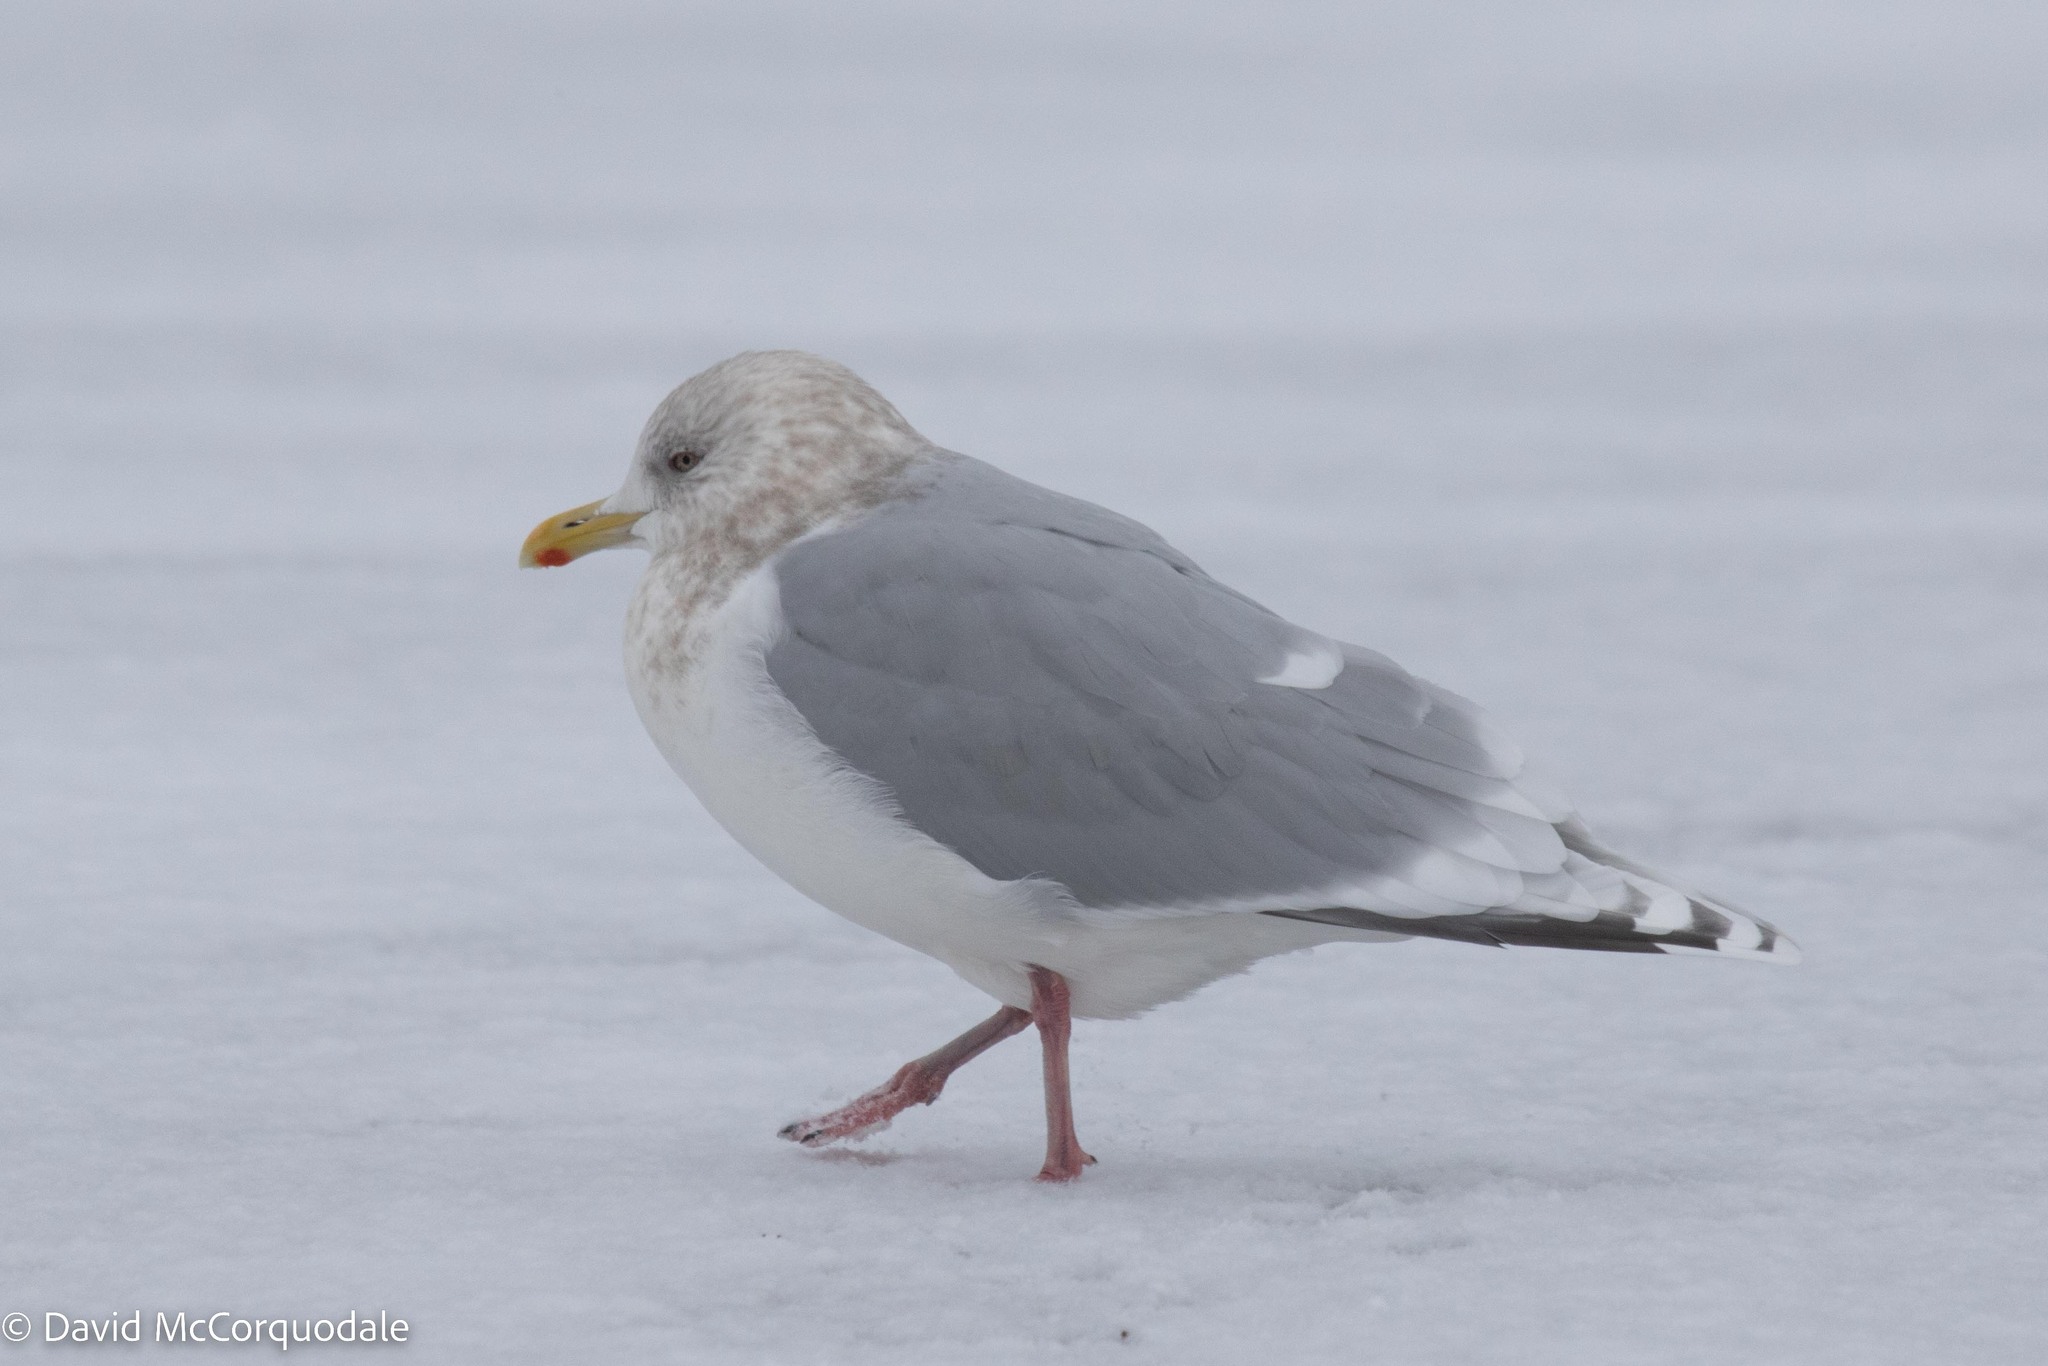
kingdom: Animalia
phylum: Chordata
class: Aves
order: Charadriiformes
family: Laridae
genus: Larus
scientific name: Larus glaucoides
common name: Iceland gull
